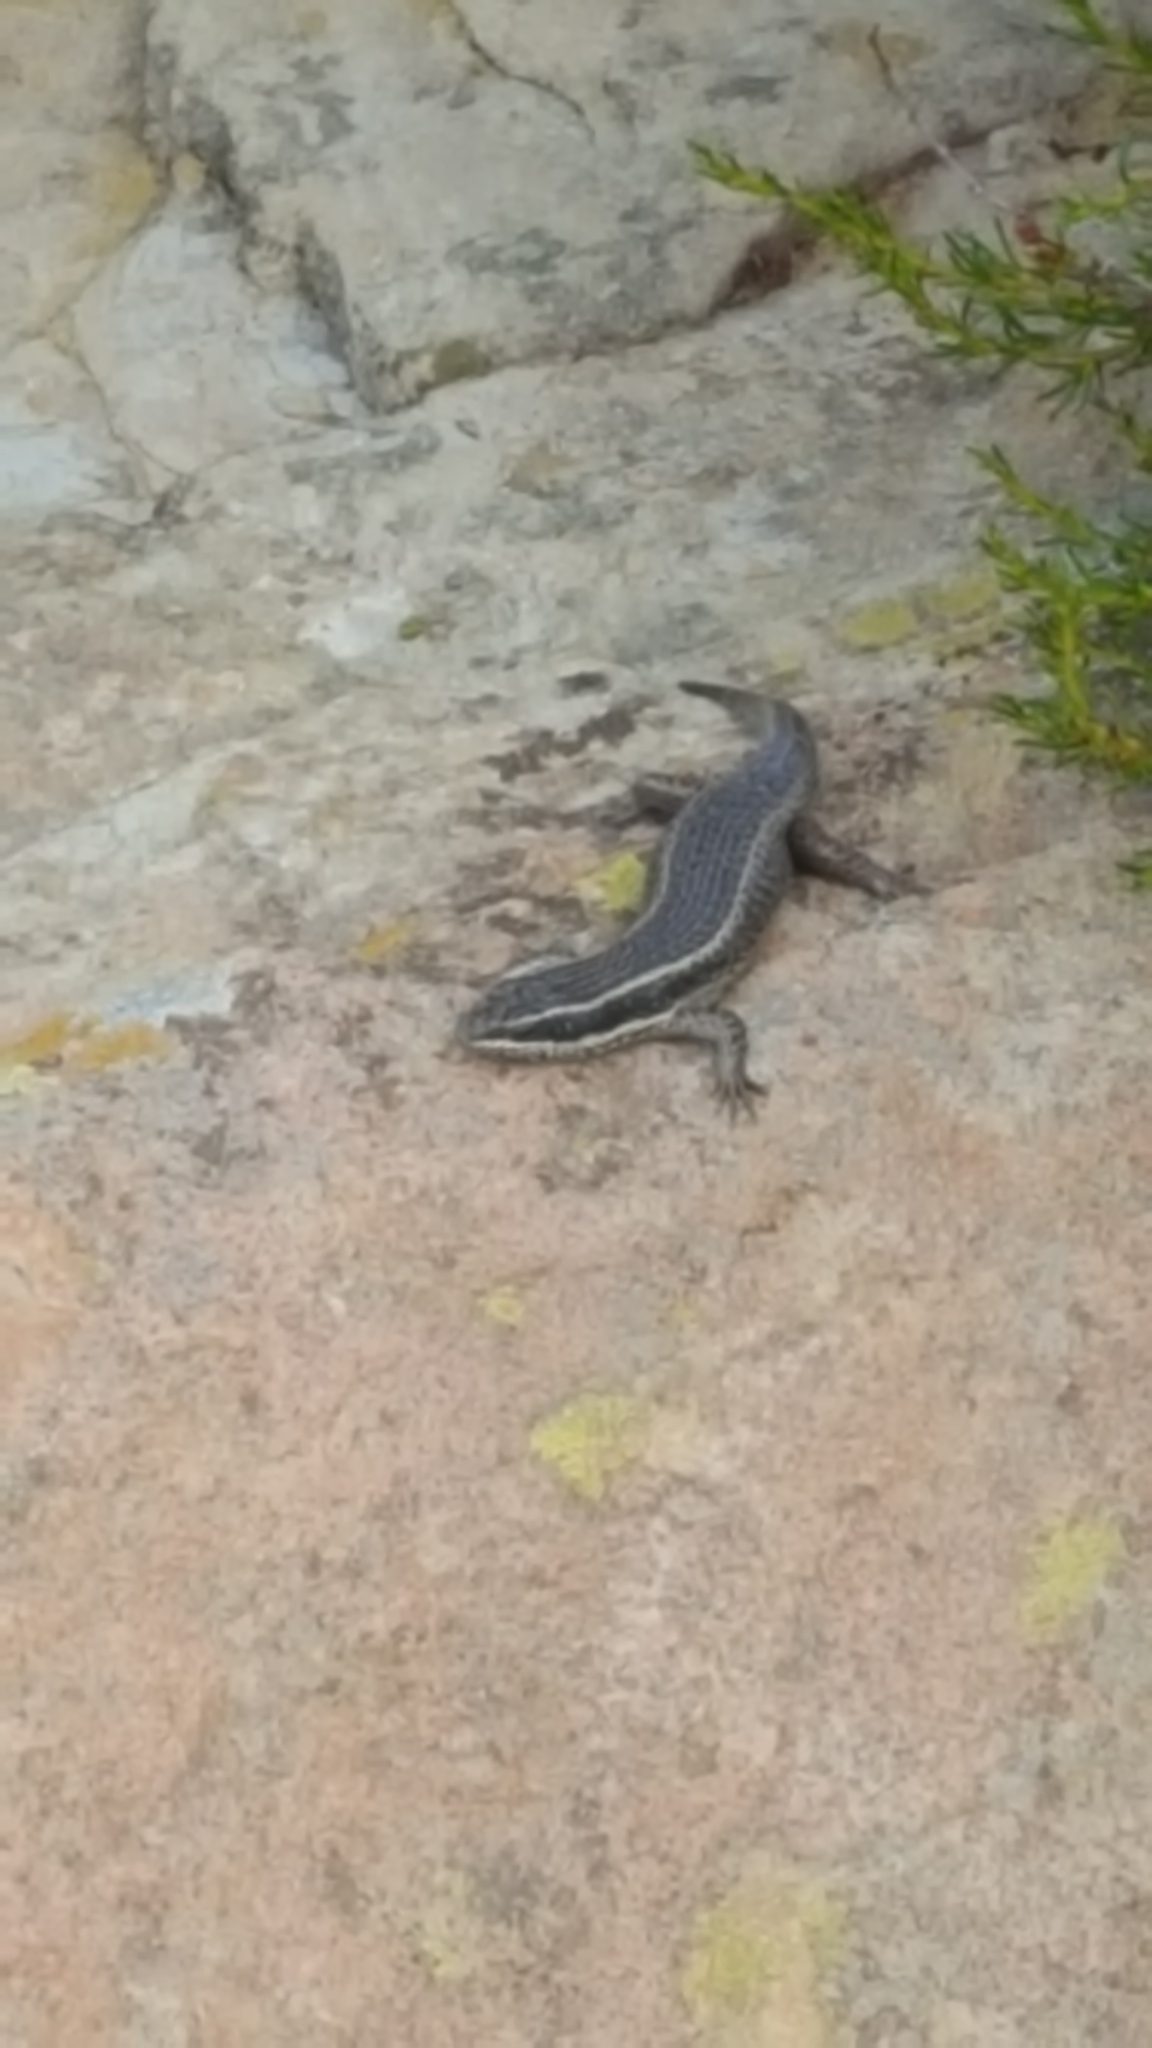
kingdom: Animalia
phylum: Chordata
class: Squamata
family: Scincidae
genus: Trachylepis
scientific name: Trachylepis punctatissima
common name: Montane speckled skink
